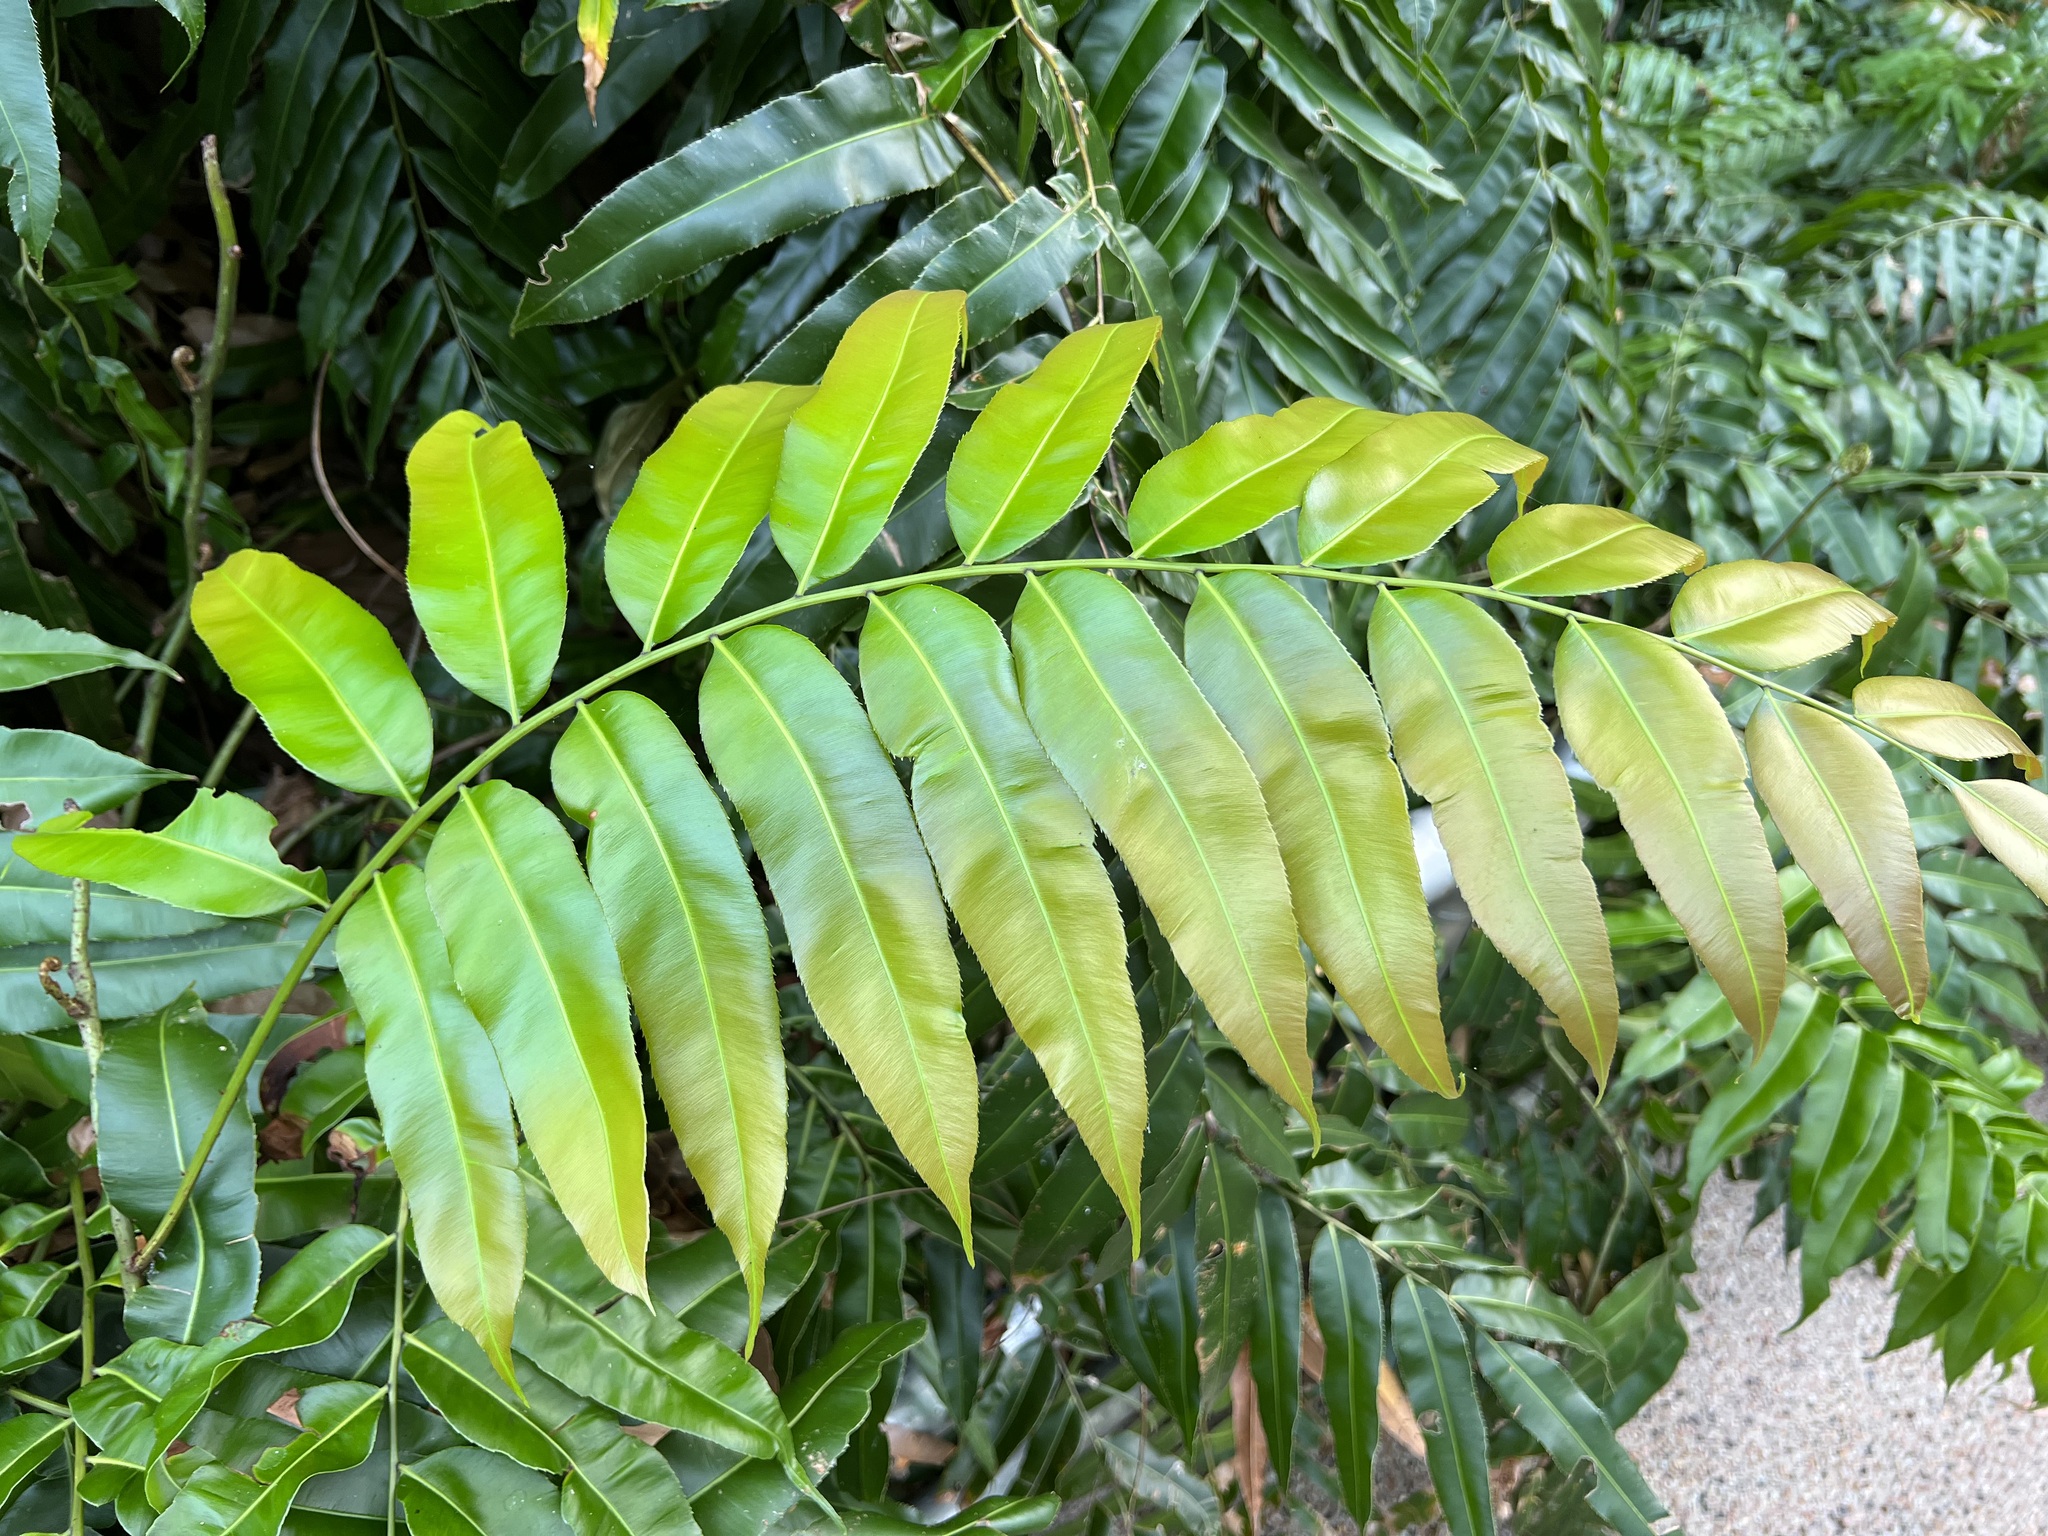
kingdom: Plantae
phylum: Tracheophyta
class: Polypodiopsida
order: Polypodiales
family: Blechnaceae
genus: Stenochlaena
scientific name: Stenochlaena palustris
